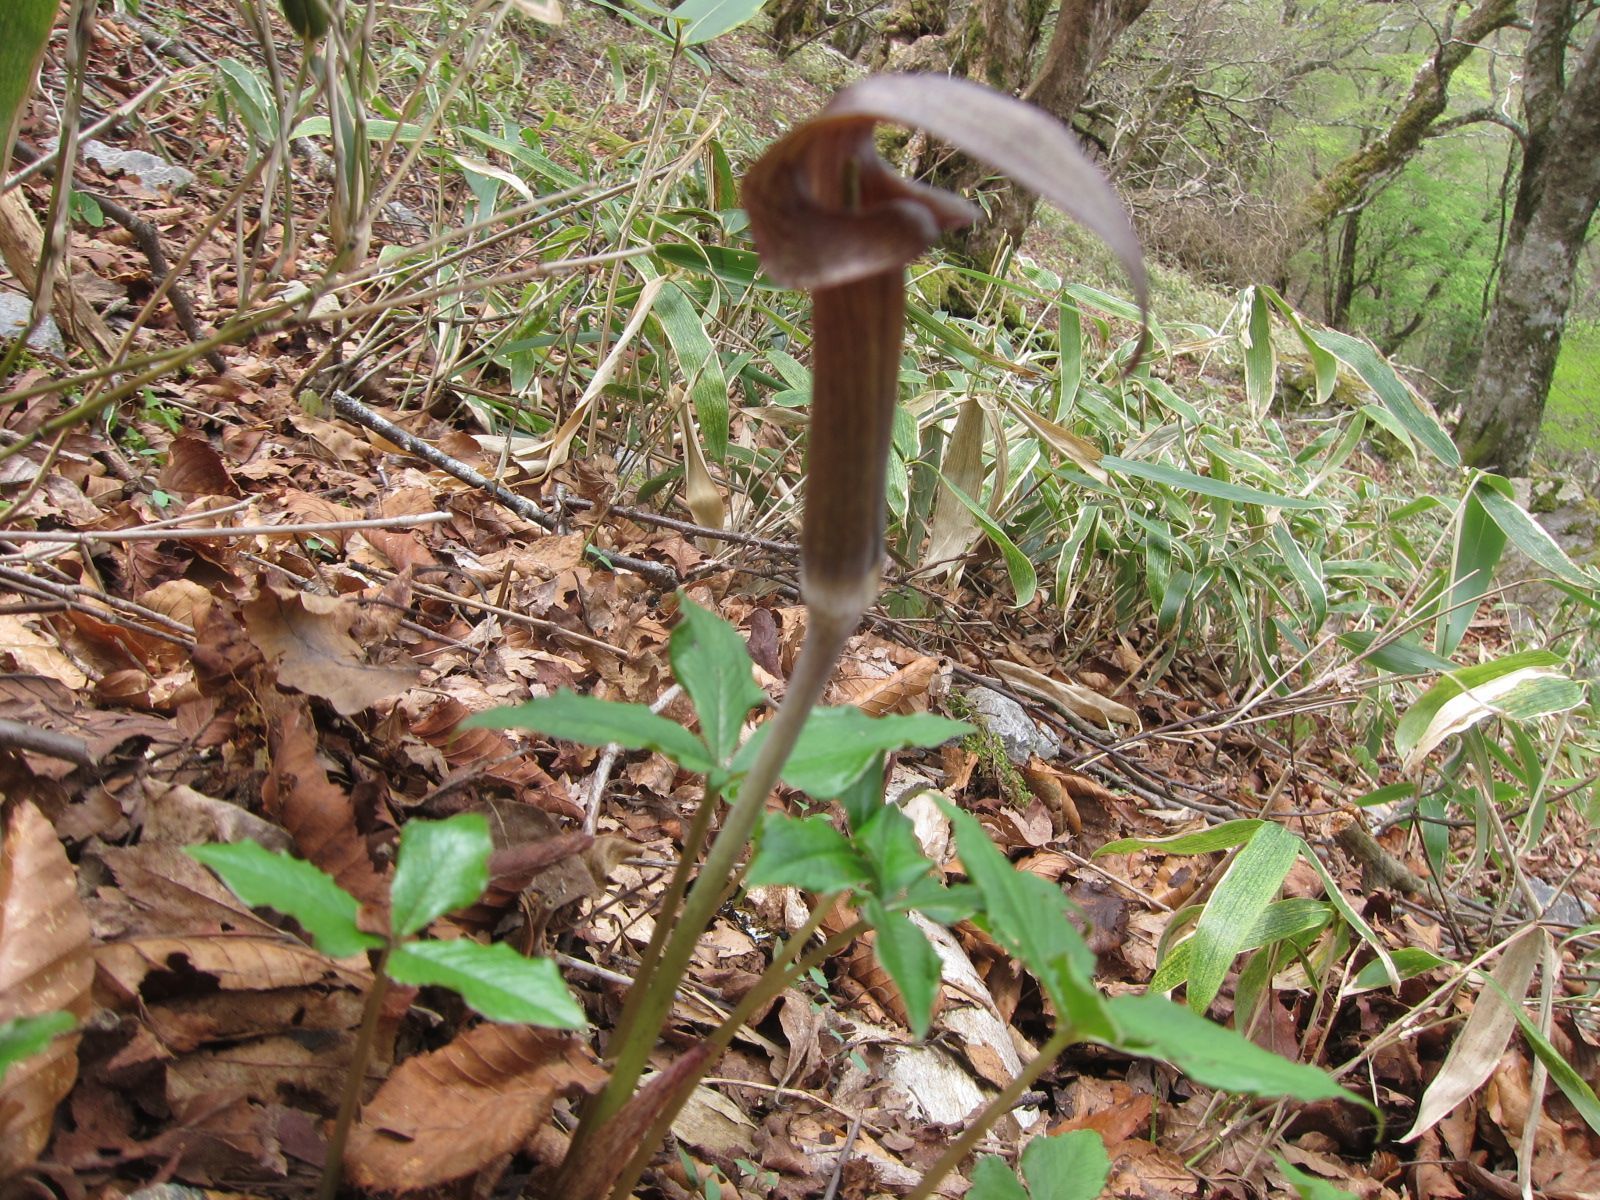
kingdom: Plantae
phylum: Tracheophyta
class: Liliopsida
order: Alismatales
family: Araceae
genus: Arisaema
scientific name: Arisaema ternatipartitum
